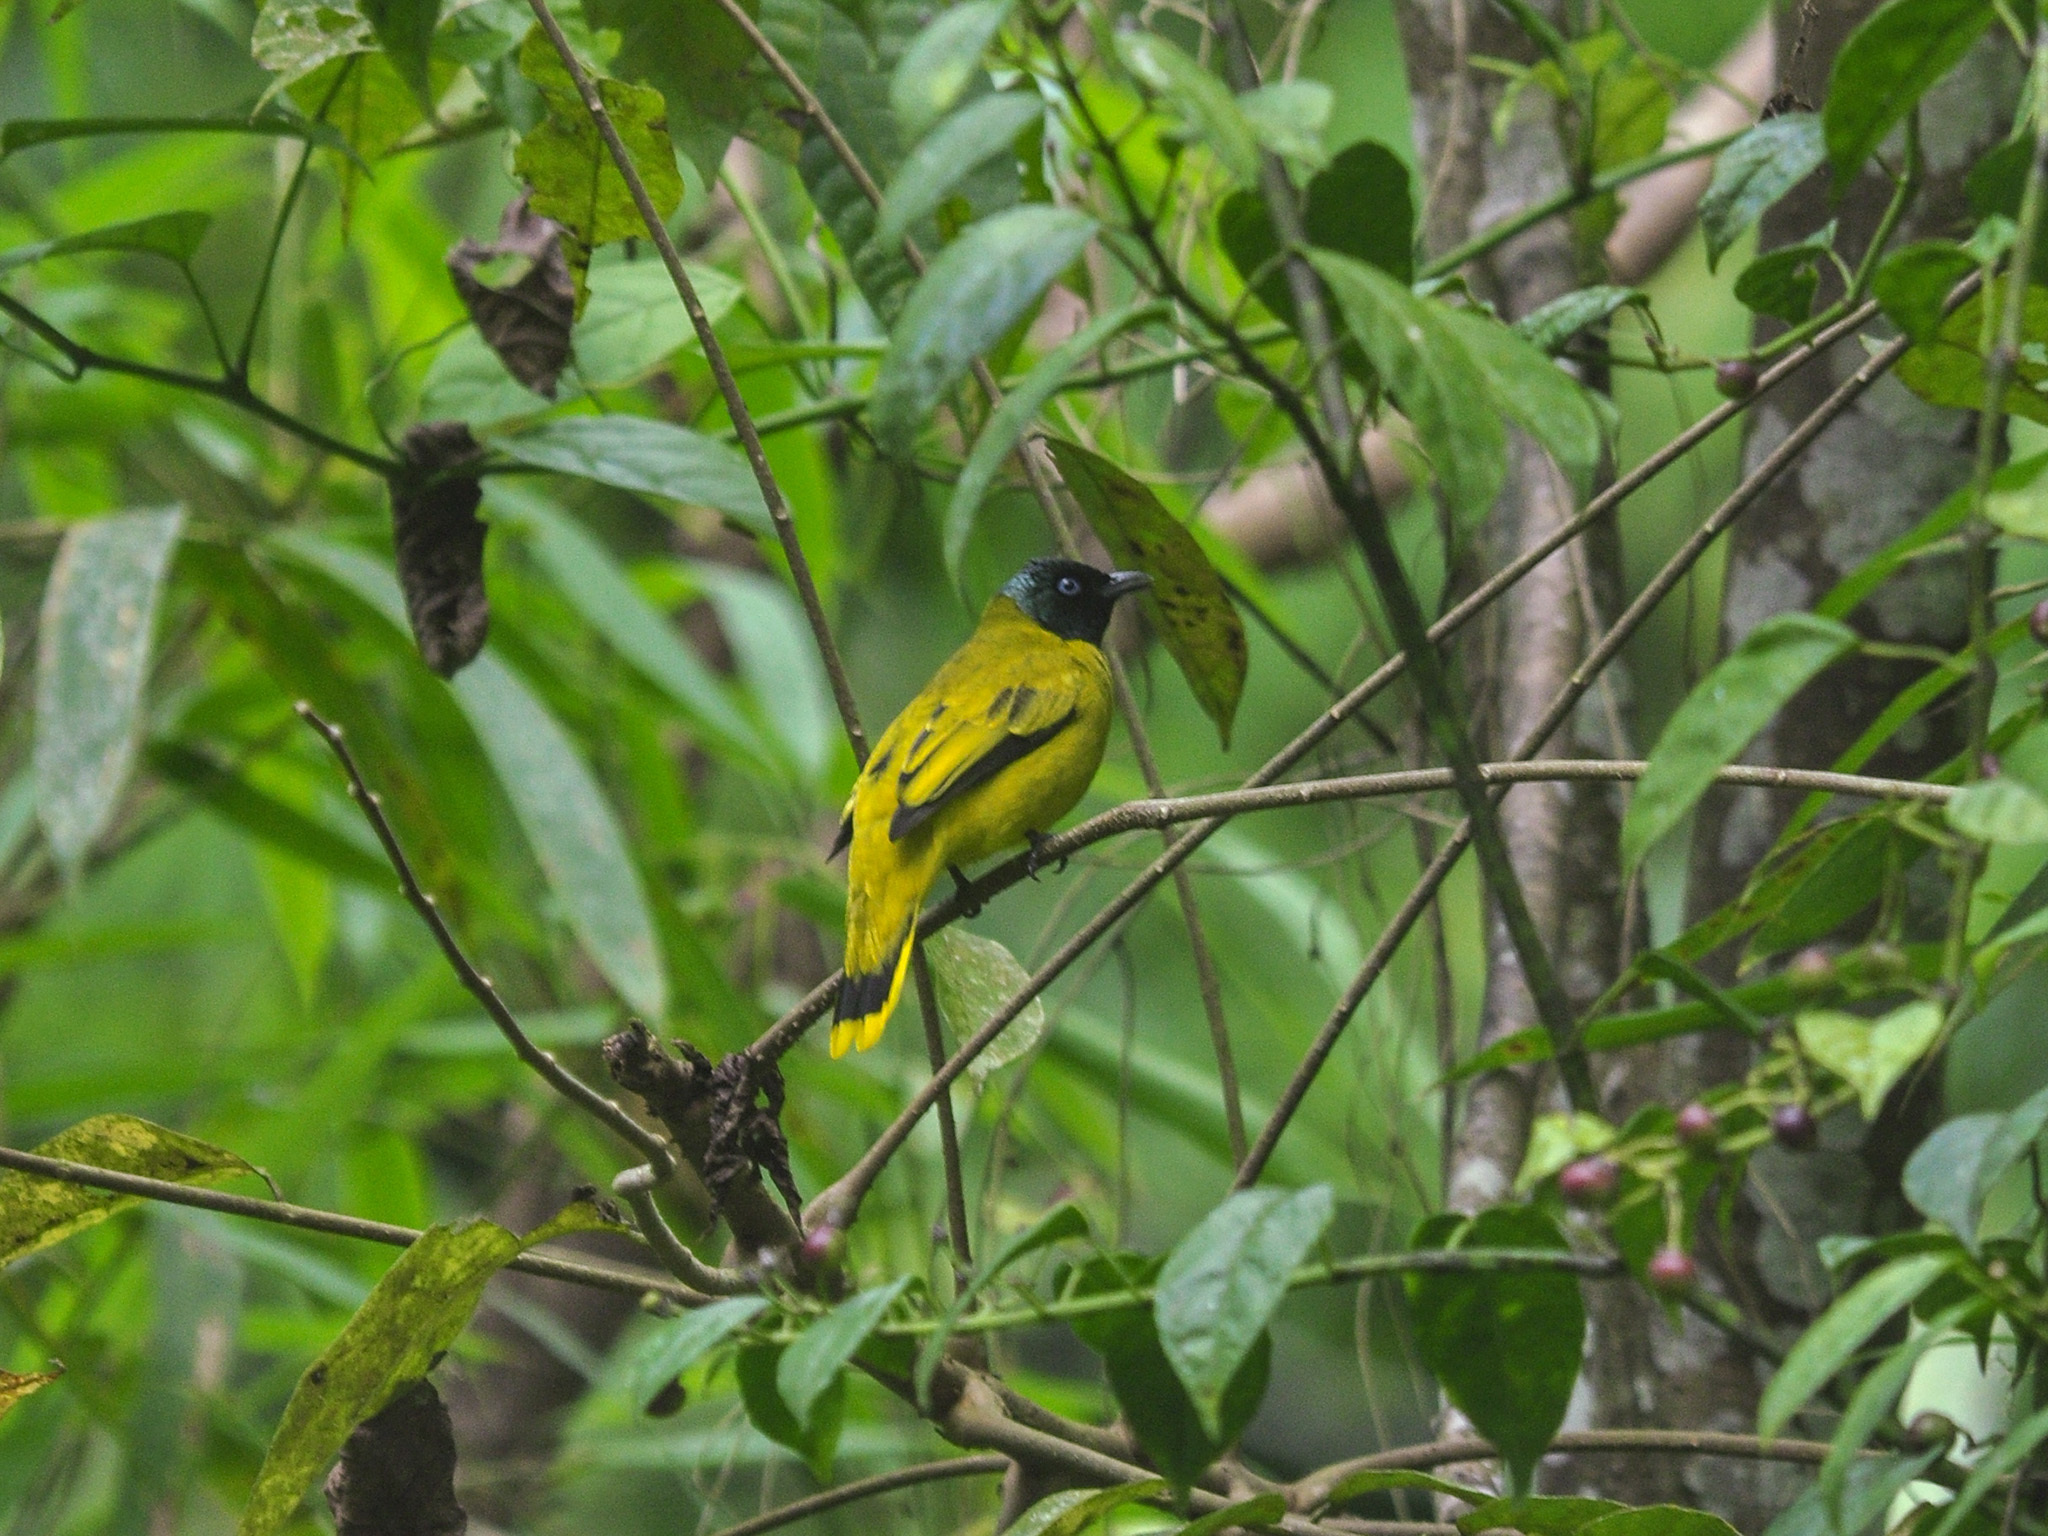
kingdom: Animalia
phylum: Chordata
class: Aves
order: Passeriformes
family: Pycnonotidae
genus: Microtarsus
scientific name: Microtarsus
